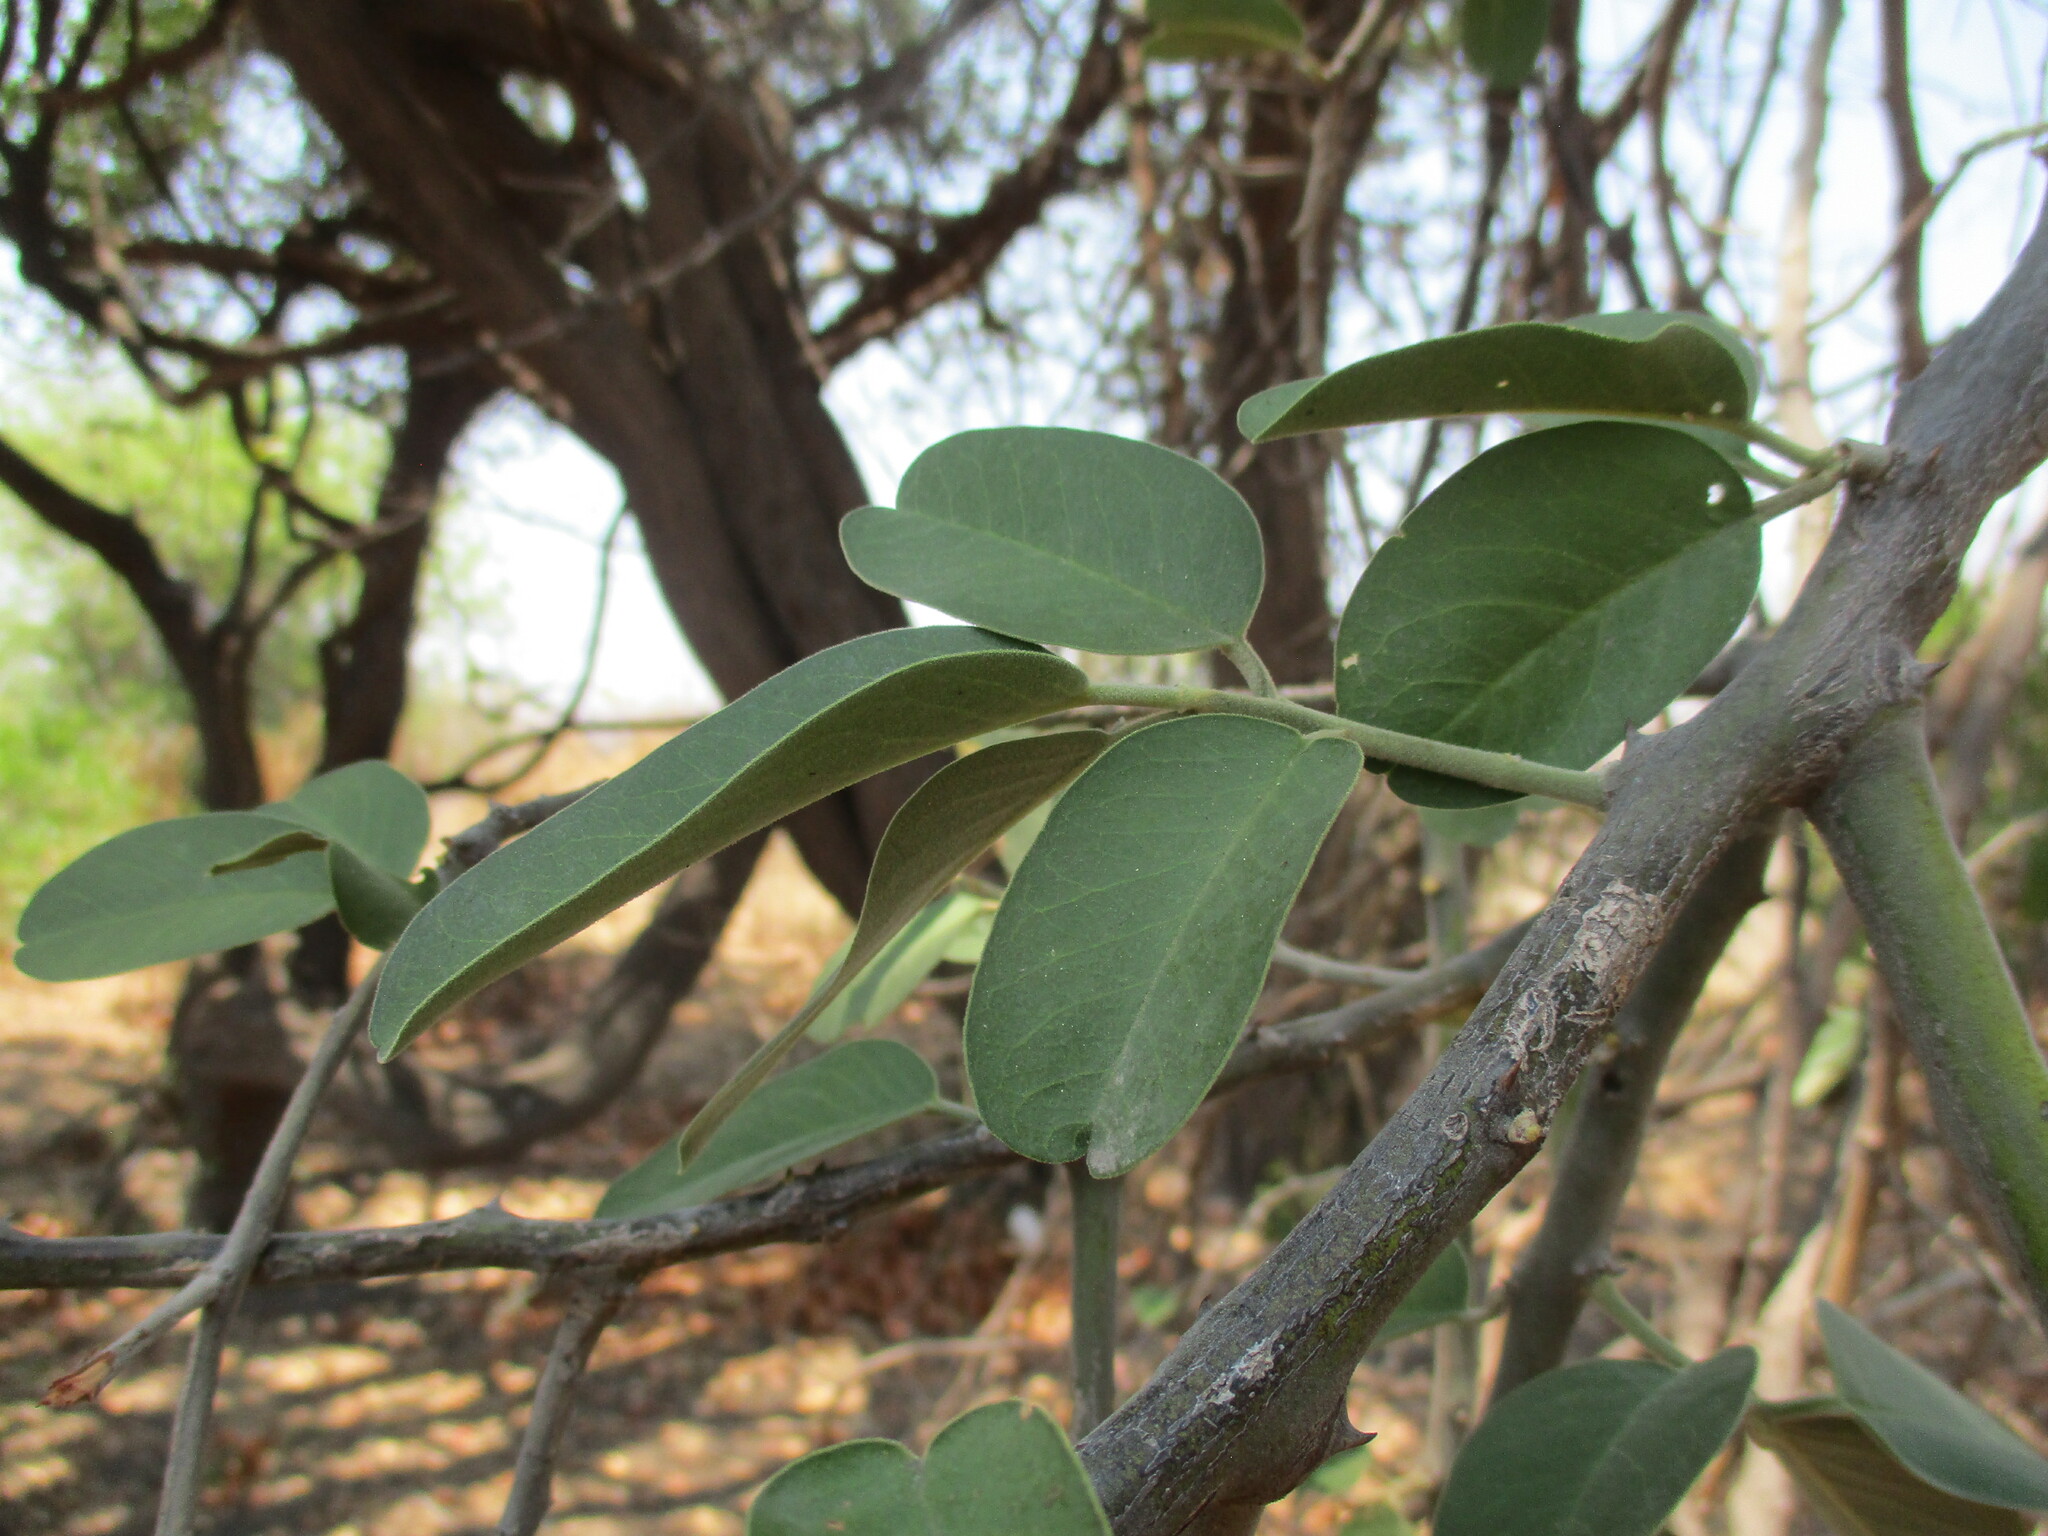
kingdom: Plantae
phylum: Tracheophyta
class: Magnoliopsida
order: Brassicales
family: Capparaceae
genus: Capparis
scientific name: Capparis tomentosa
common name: African caper
